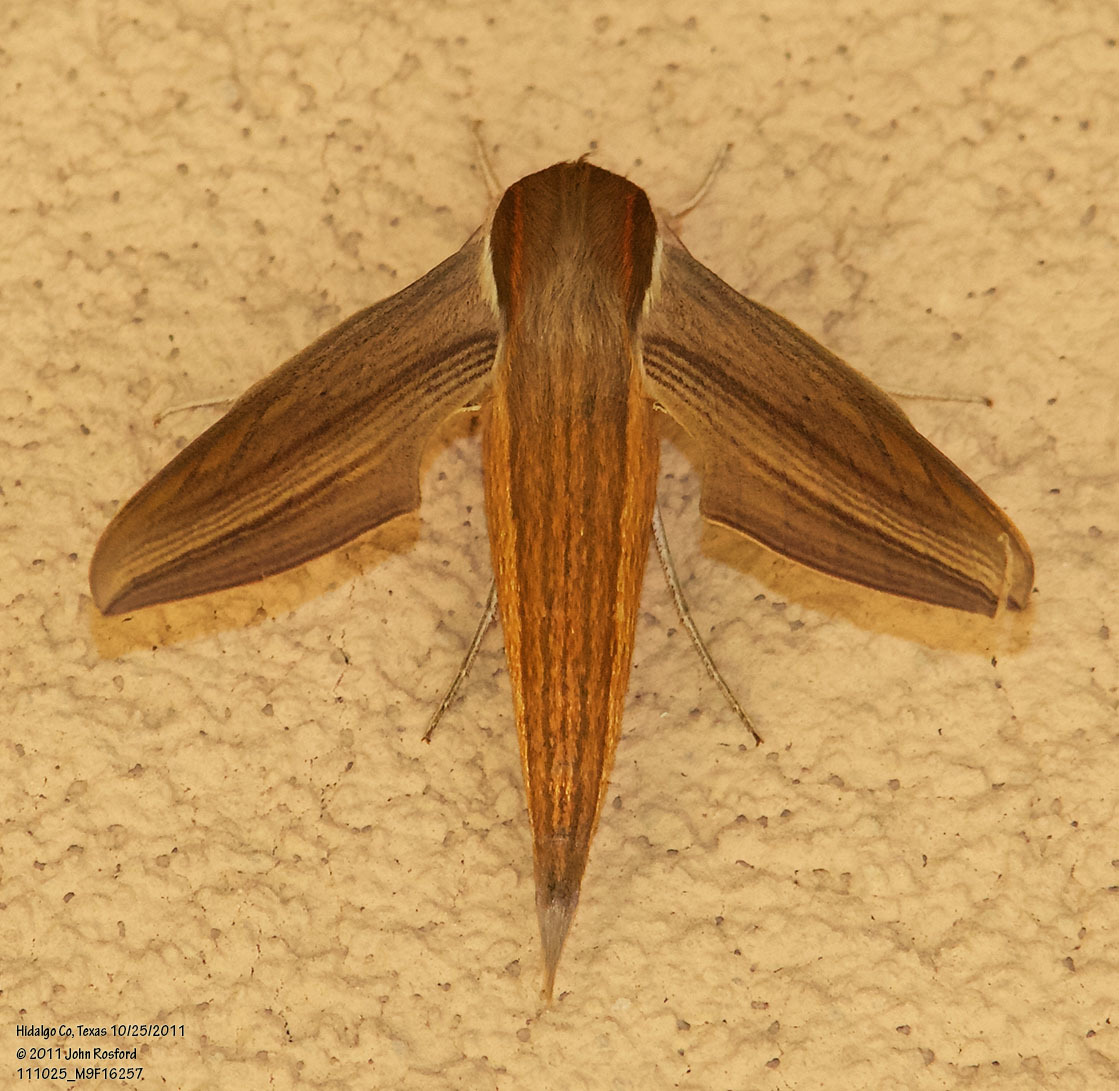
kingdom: Animalia
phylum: Arthropoda
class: Insecta
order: Lepidoptera
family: Sphingidae
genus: Xylophanes
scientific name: Xylophanes tersa
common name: Tersa sphinx
